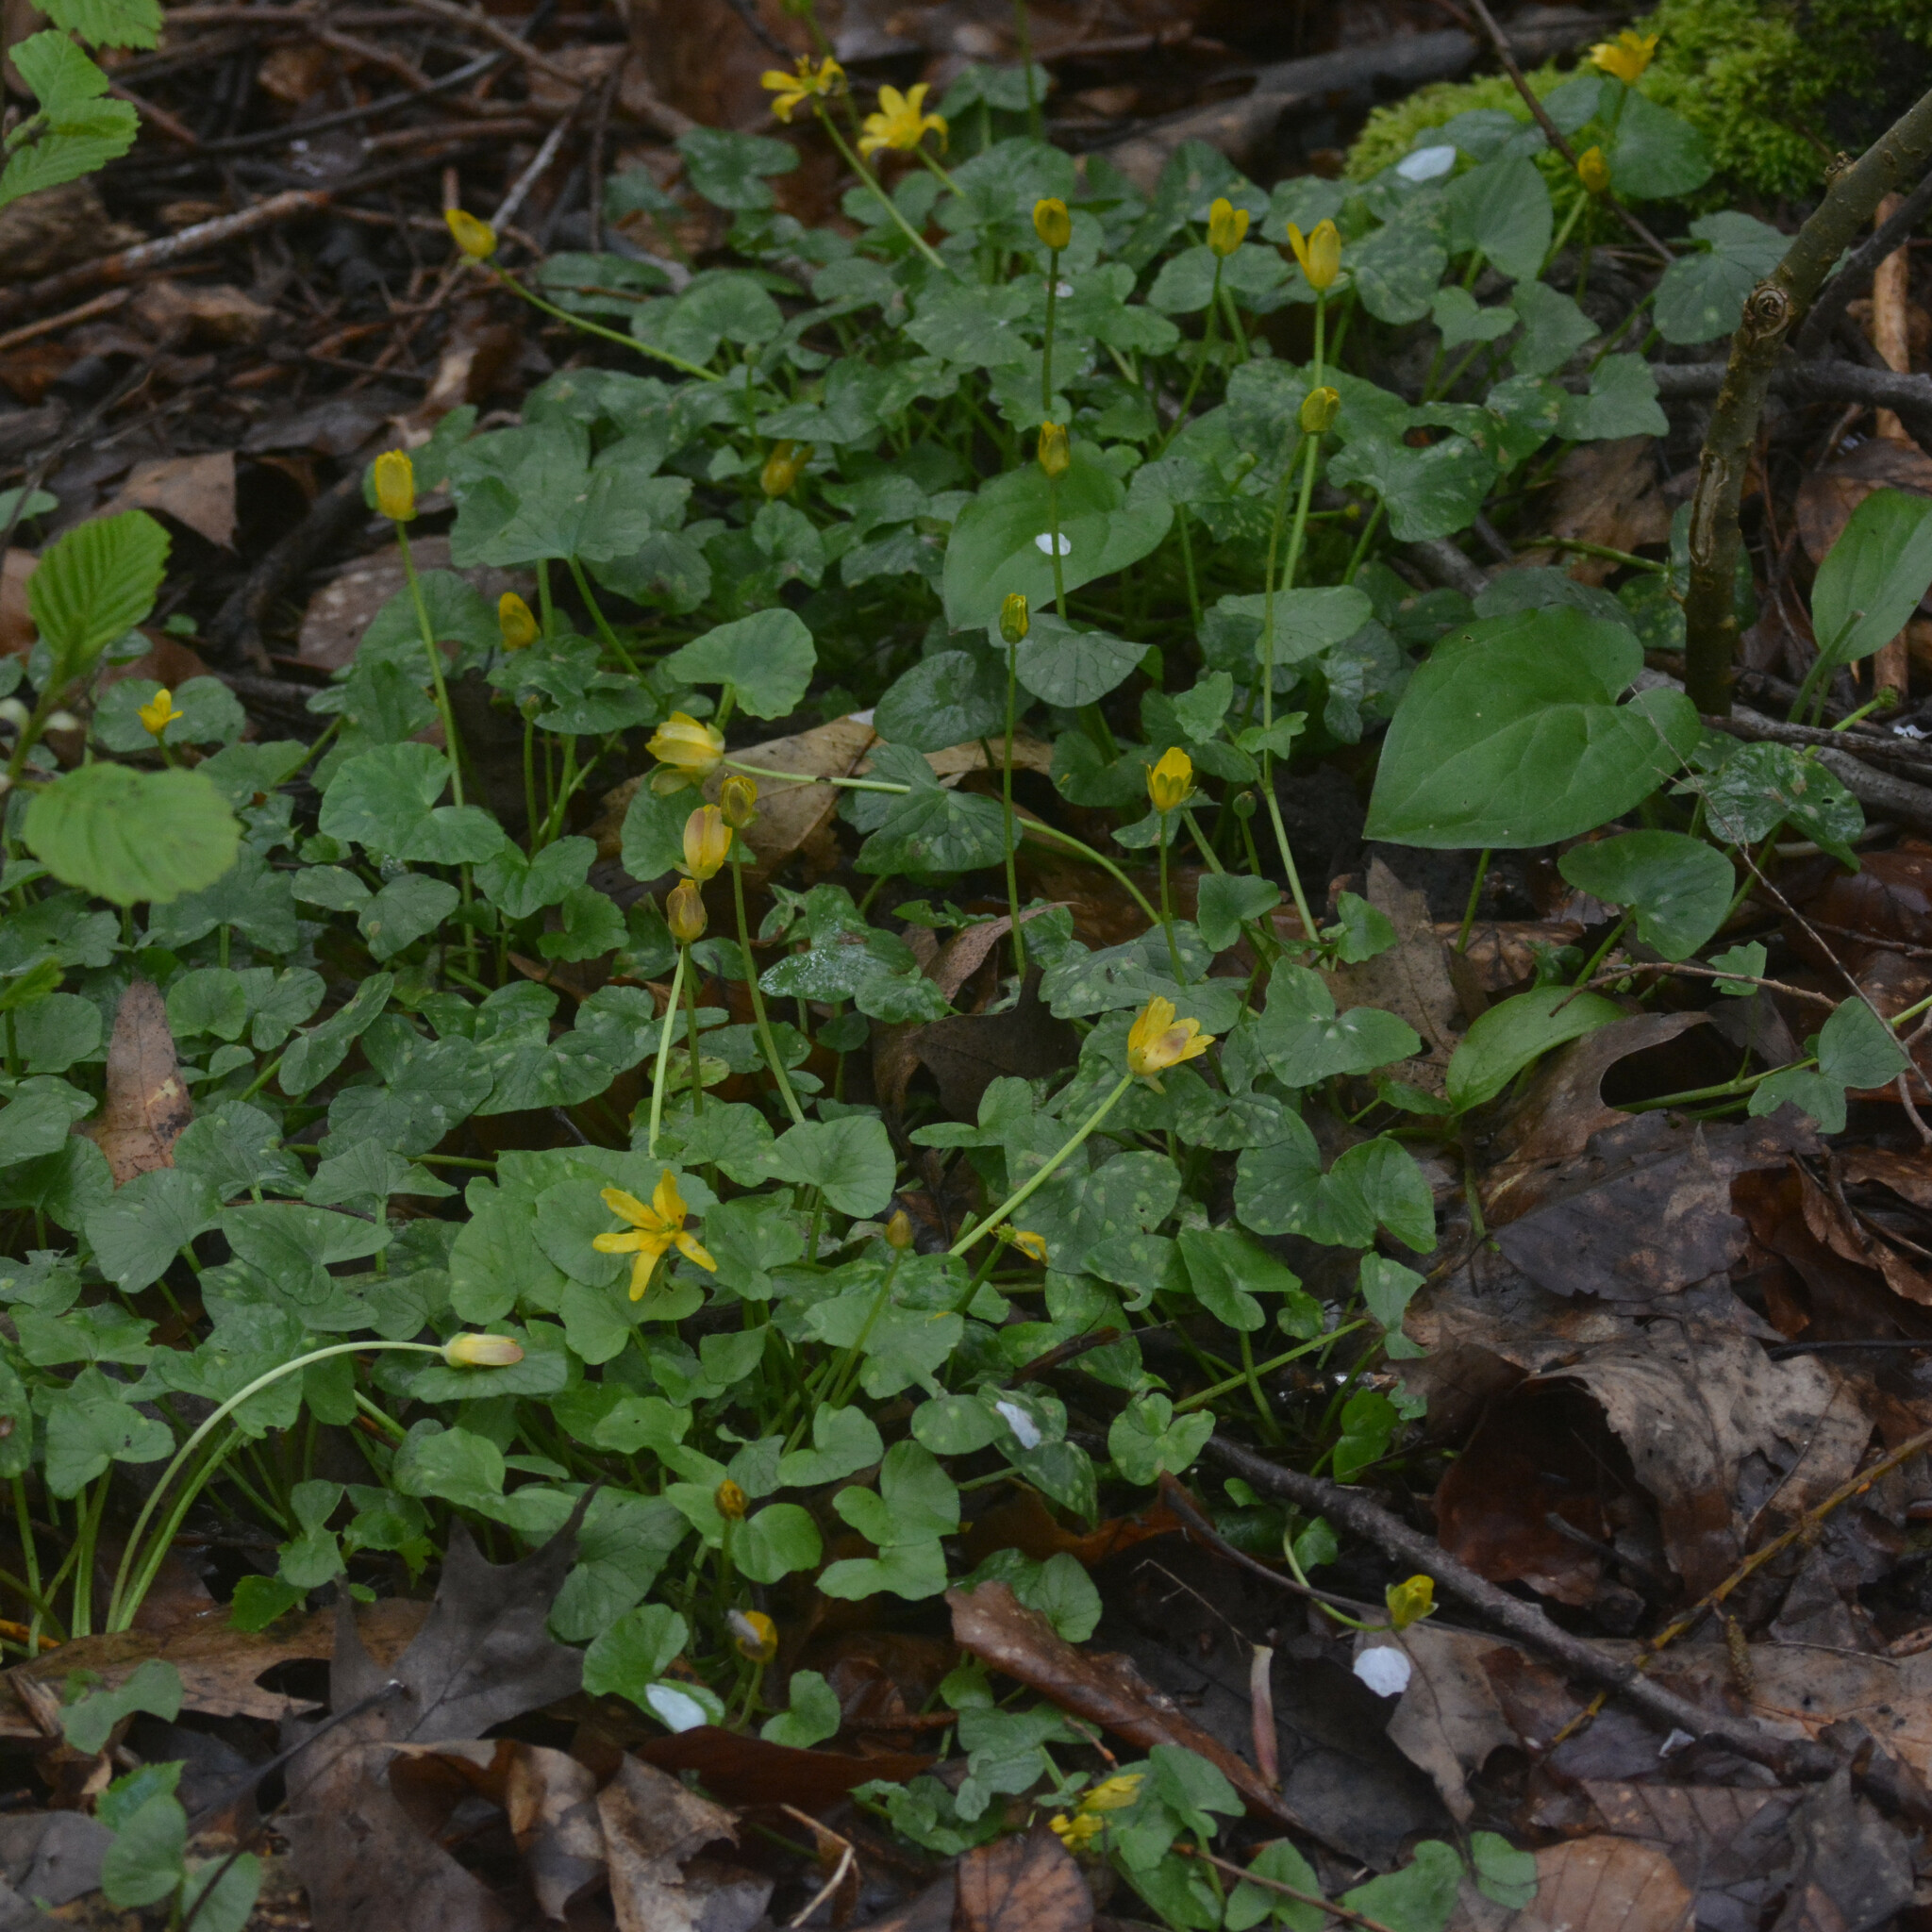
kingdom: Plantae
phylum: Tracheophyta
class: Magnoliopsida
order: Ranunculales
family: Ranunculaceae
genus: Ficaria
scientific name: Ficaria verna
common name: Lesser celandine
